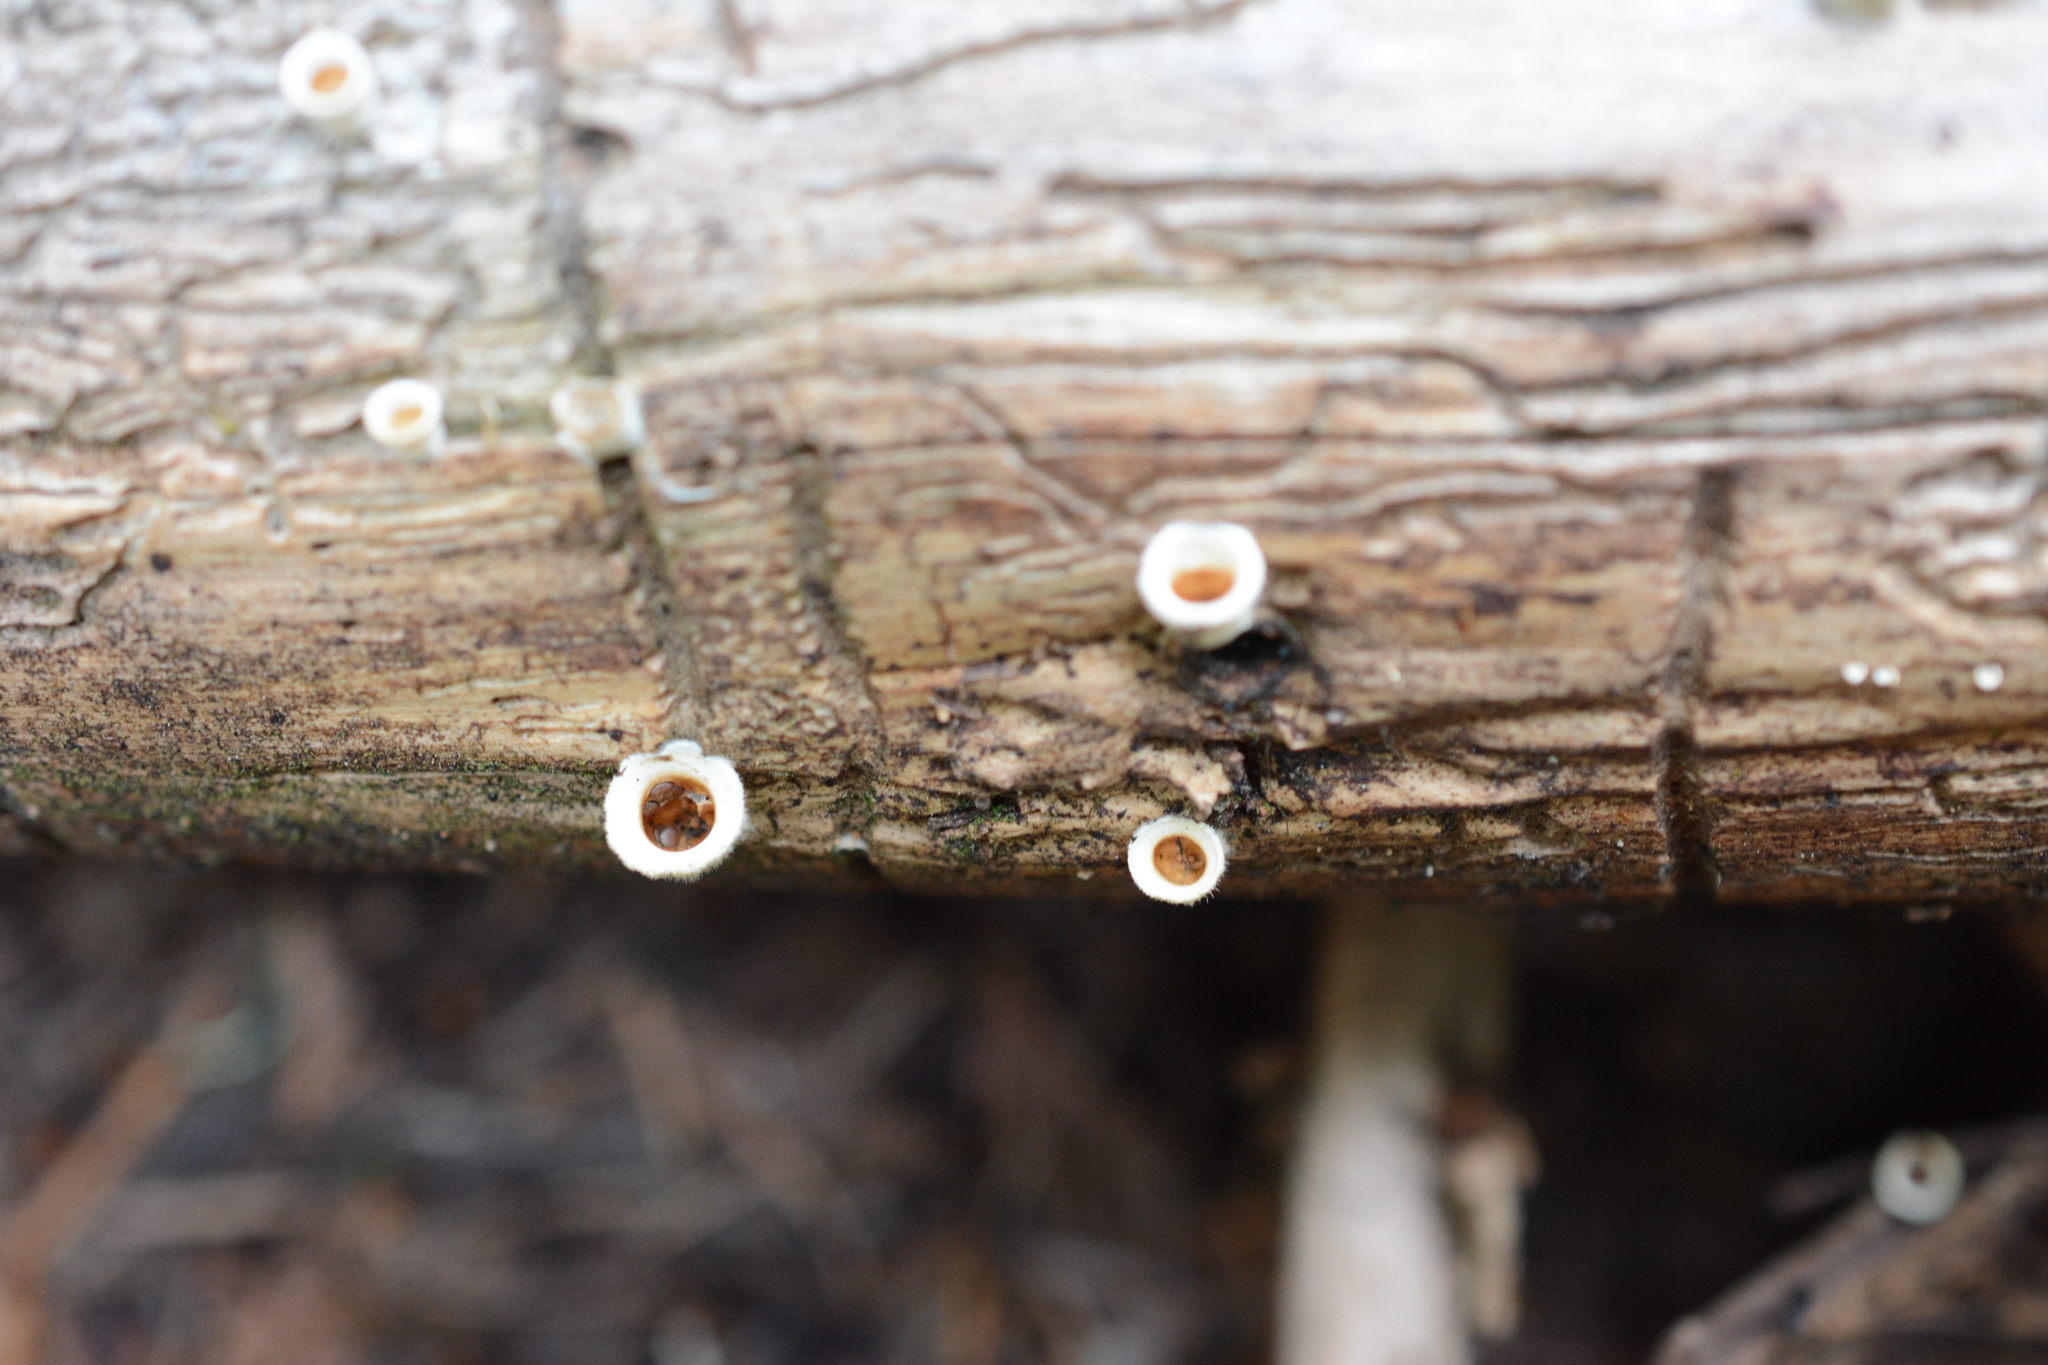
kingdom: Fungi
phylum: Basidiomycota
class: Agaricomycetes
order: Agaricales
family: Agaricaceae
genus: Nidula
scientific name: Nidula niveotomentosa
